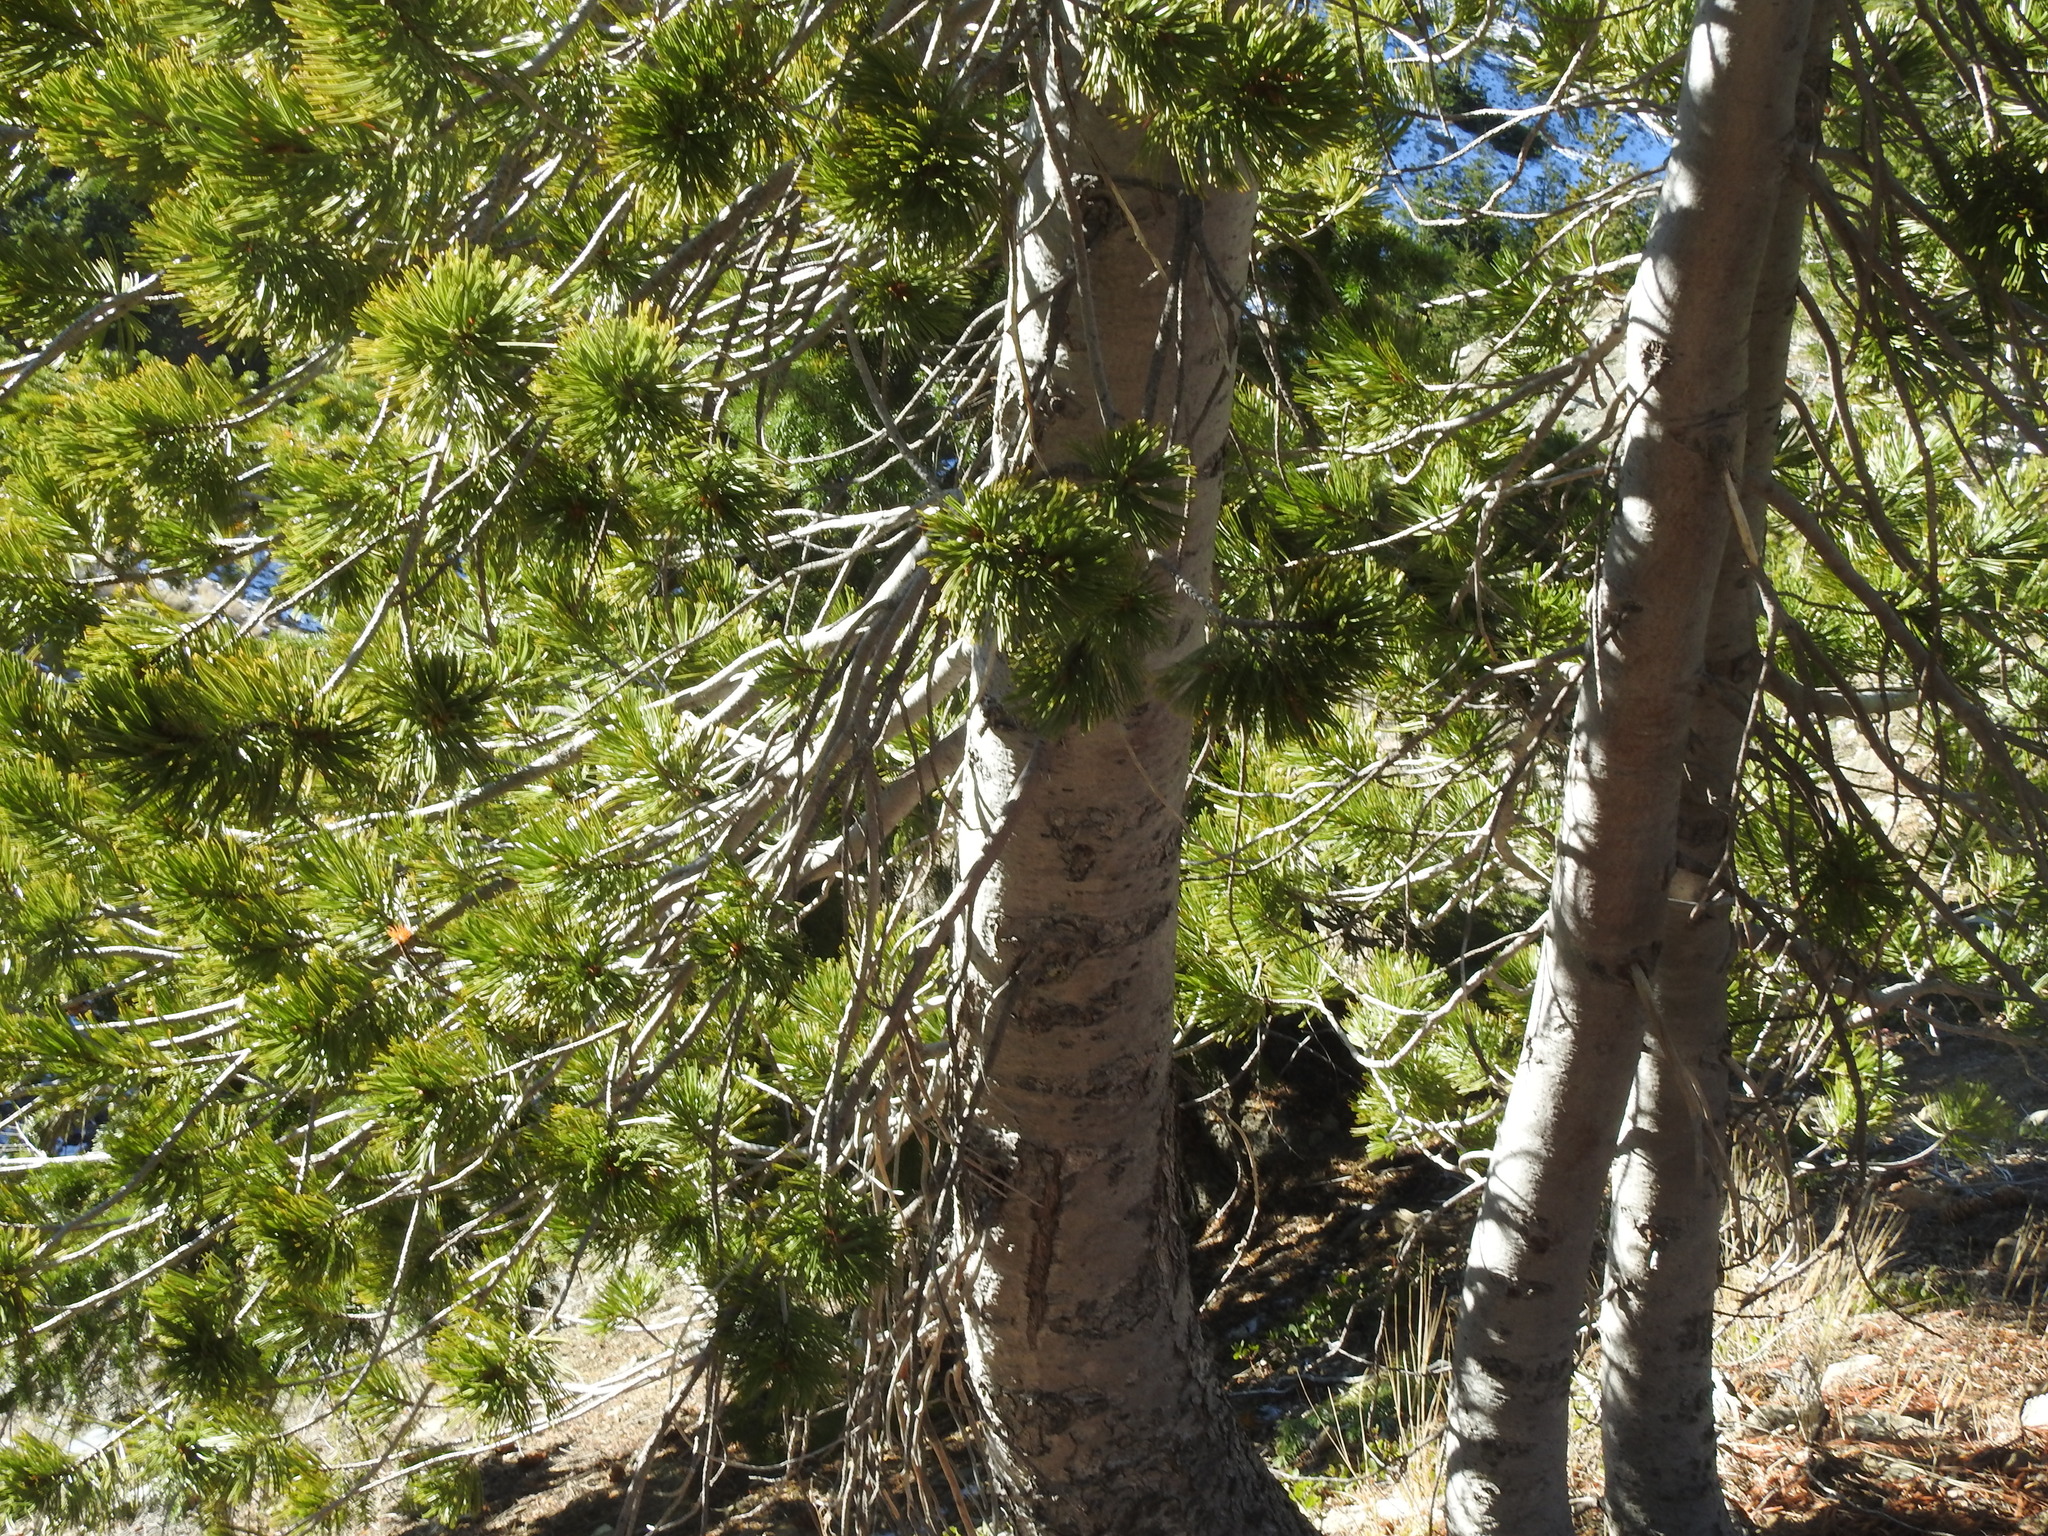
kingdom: Plantae
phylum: Tracheophyta
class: Pinopsida
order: Pinales
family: Pinaceae
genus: Pinus
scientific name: Pinus albicaulis
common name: Whitebark pine
